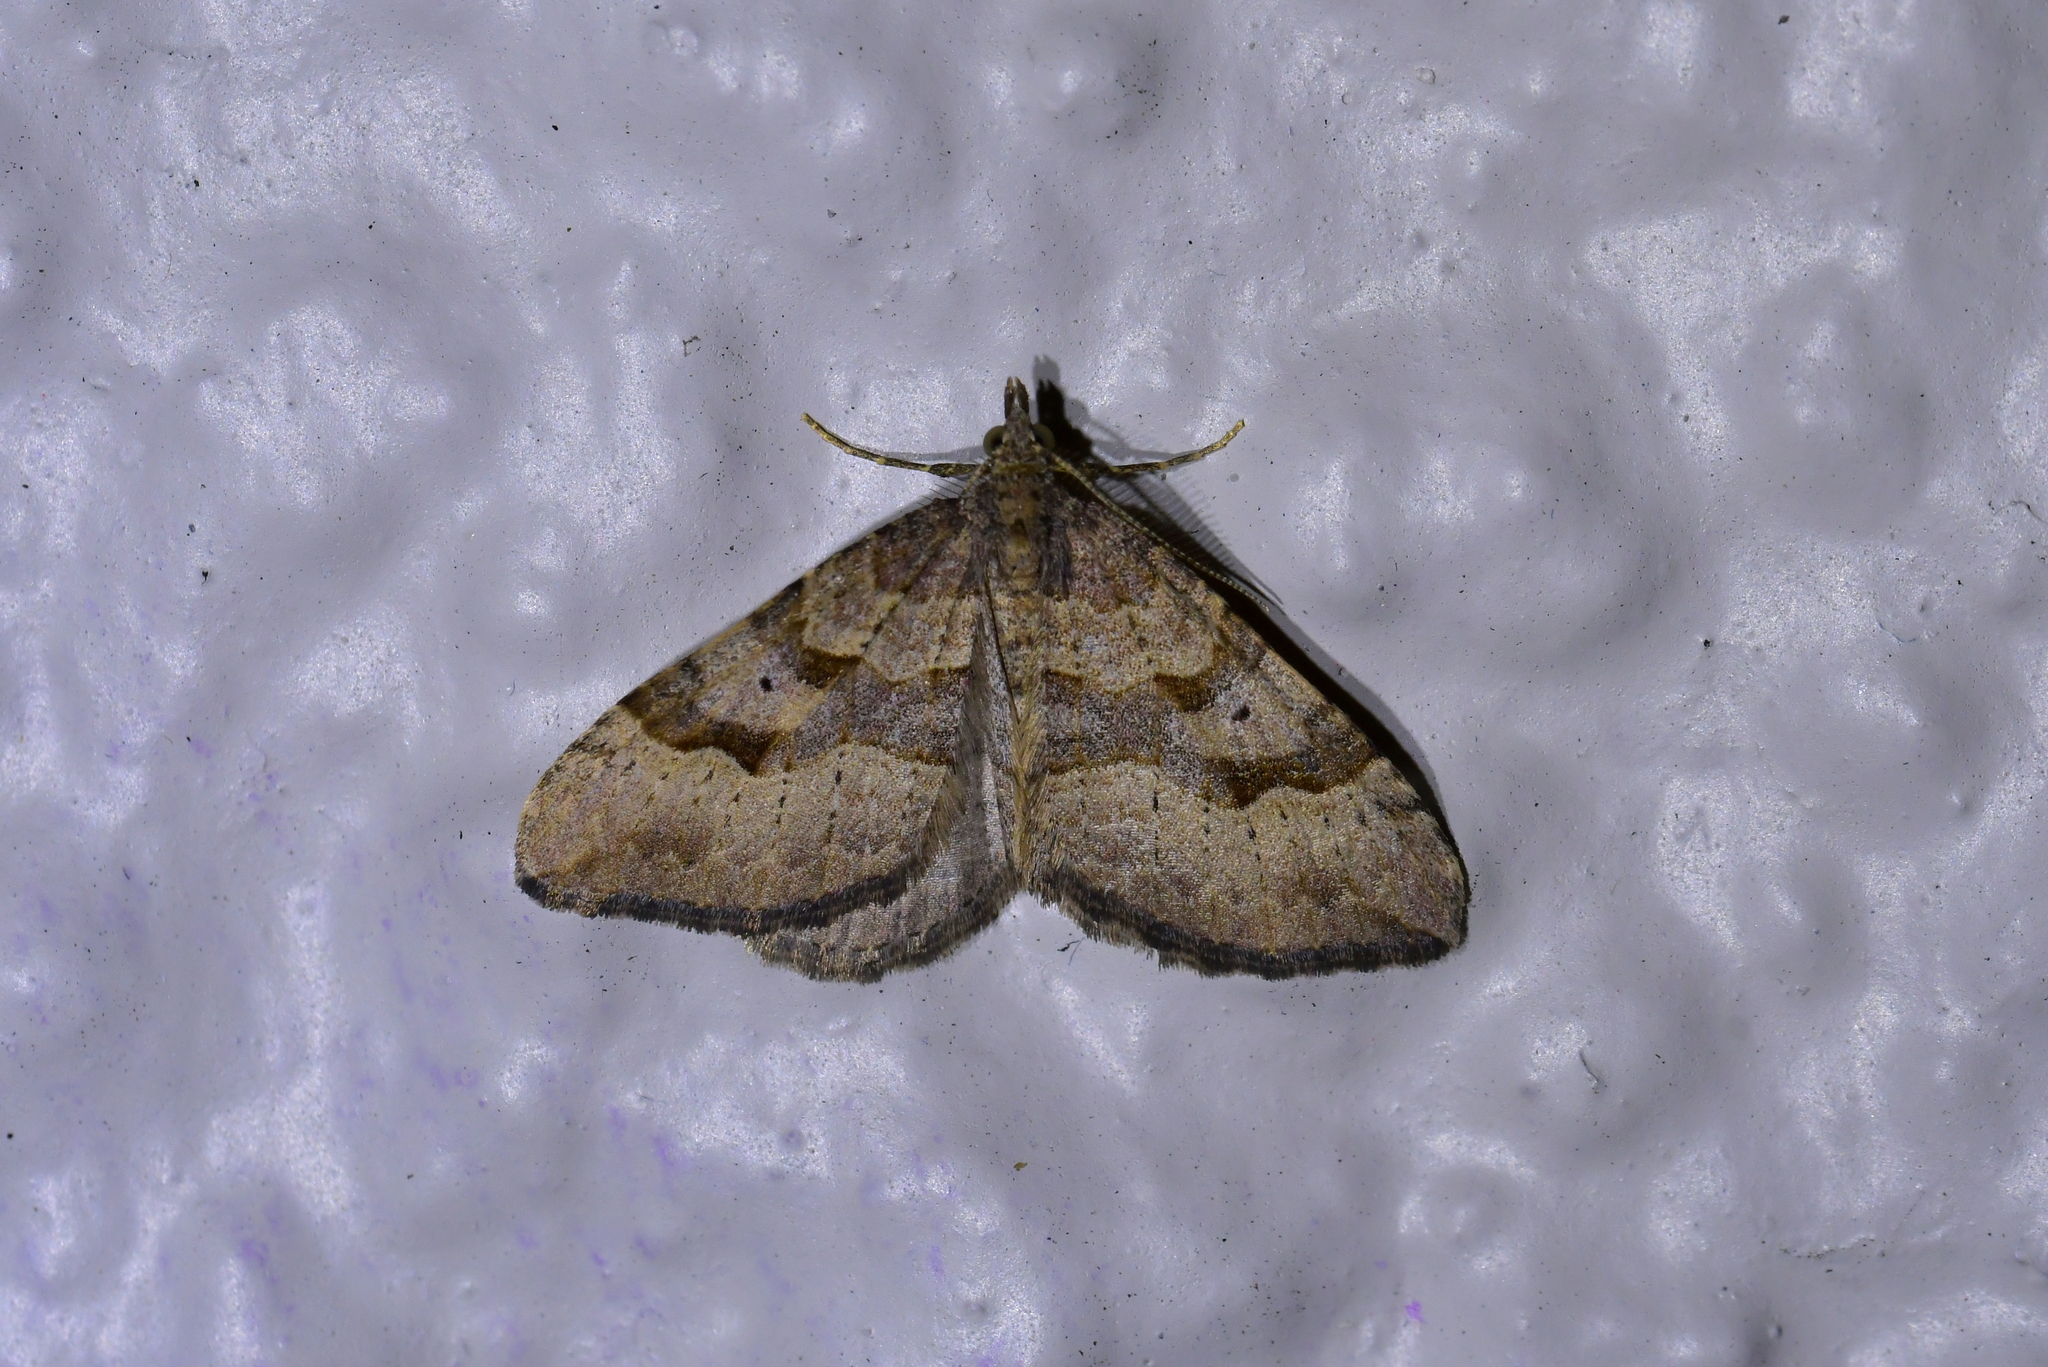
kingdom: Animalia
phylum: Arthropoda
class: Insecta
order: Lepidoptera
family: Geometridae
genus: Epyaxa
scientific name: Epyaxa rosearia
